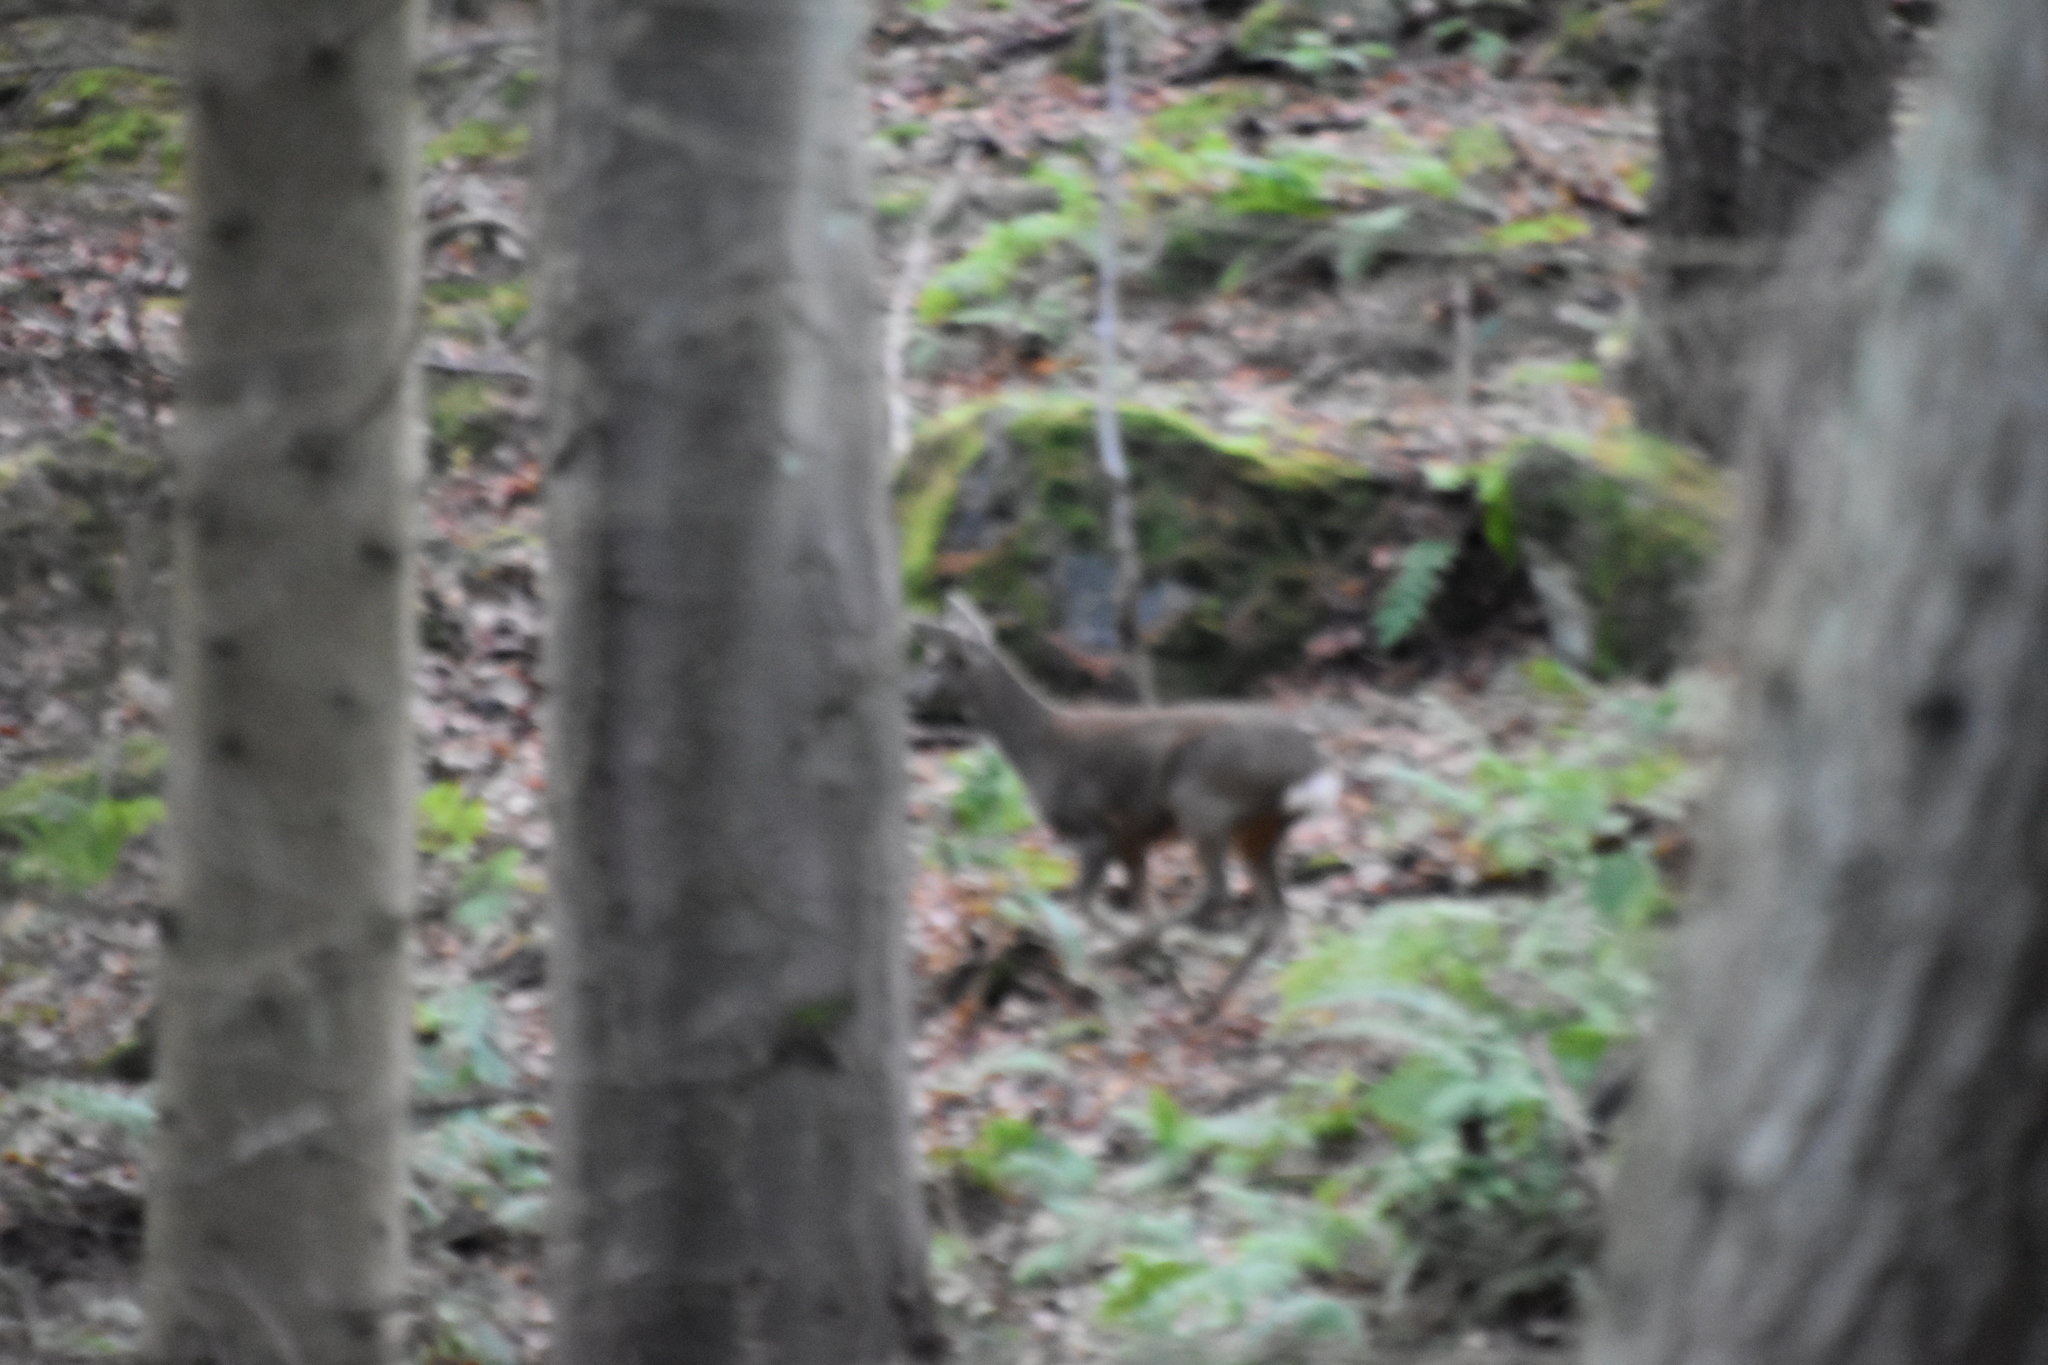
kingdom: Animalia
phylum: Chordata
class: Mammalia
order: Artiodactyla
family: Cervidae
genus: Capreolus
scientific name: Capreolus capreolus
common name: Western roe deer
